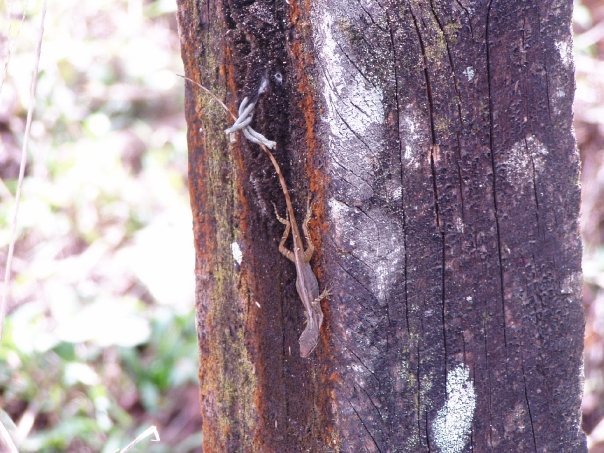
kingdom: Animalia
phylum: Chordata
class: Squamata
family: Dactyloidae
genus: Anolis
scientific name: Anolis limifrons
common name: Border anole
